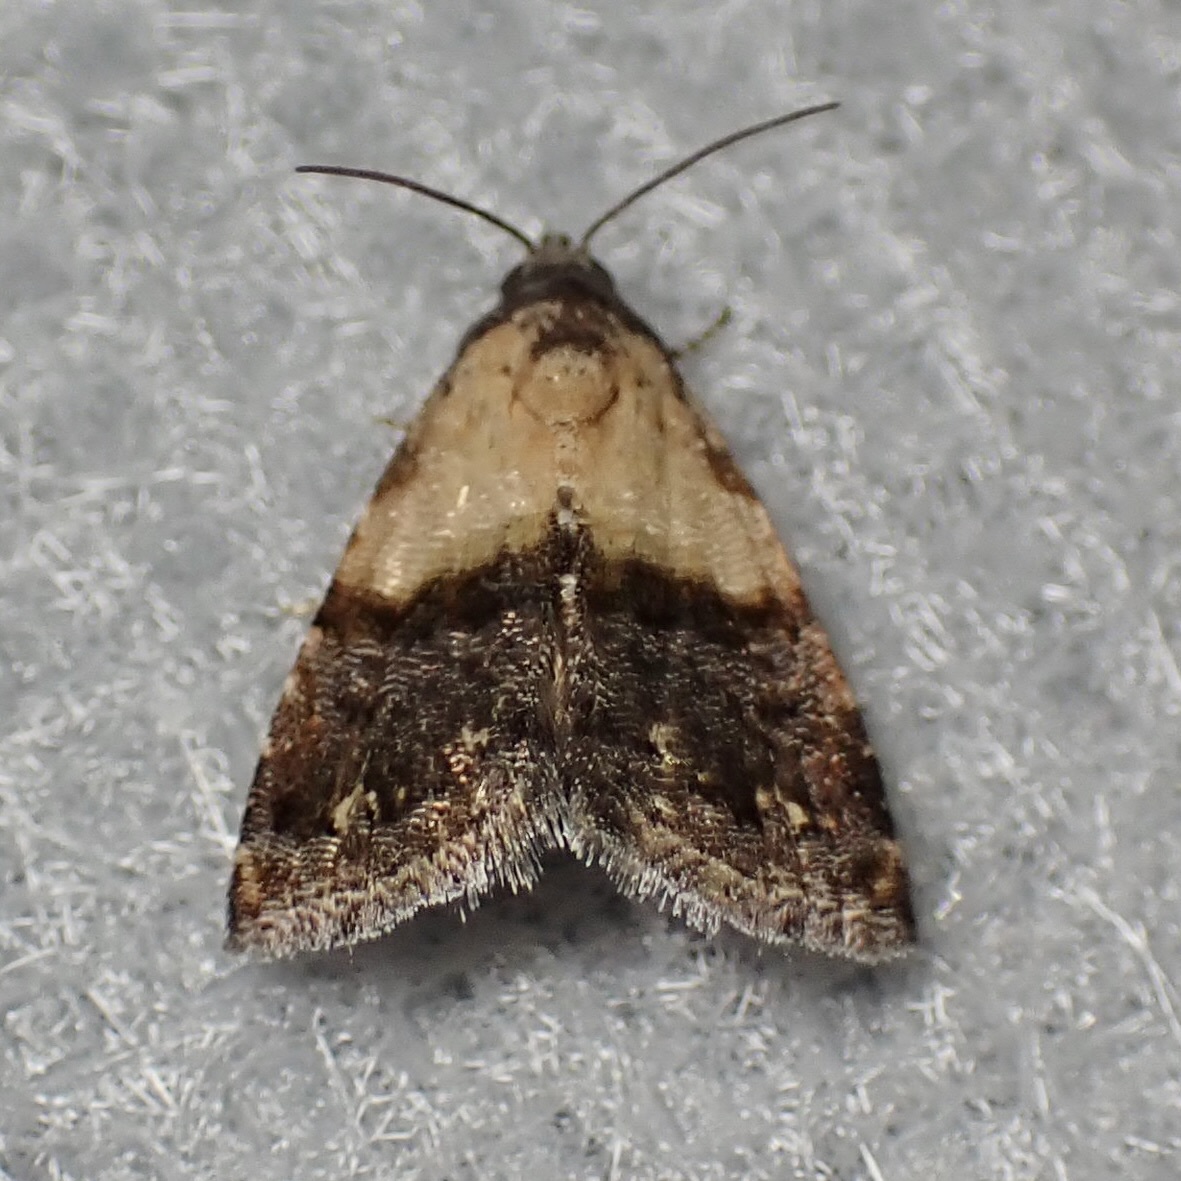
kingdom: Animalia
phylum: Arthropoda
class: Insecta
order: Lepidoptera
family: Noctuidae
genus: Tripudia
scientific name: Tripudia luda
